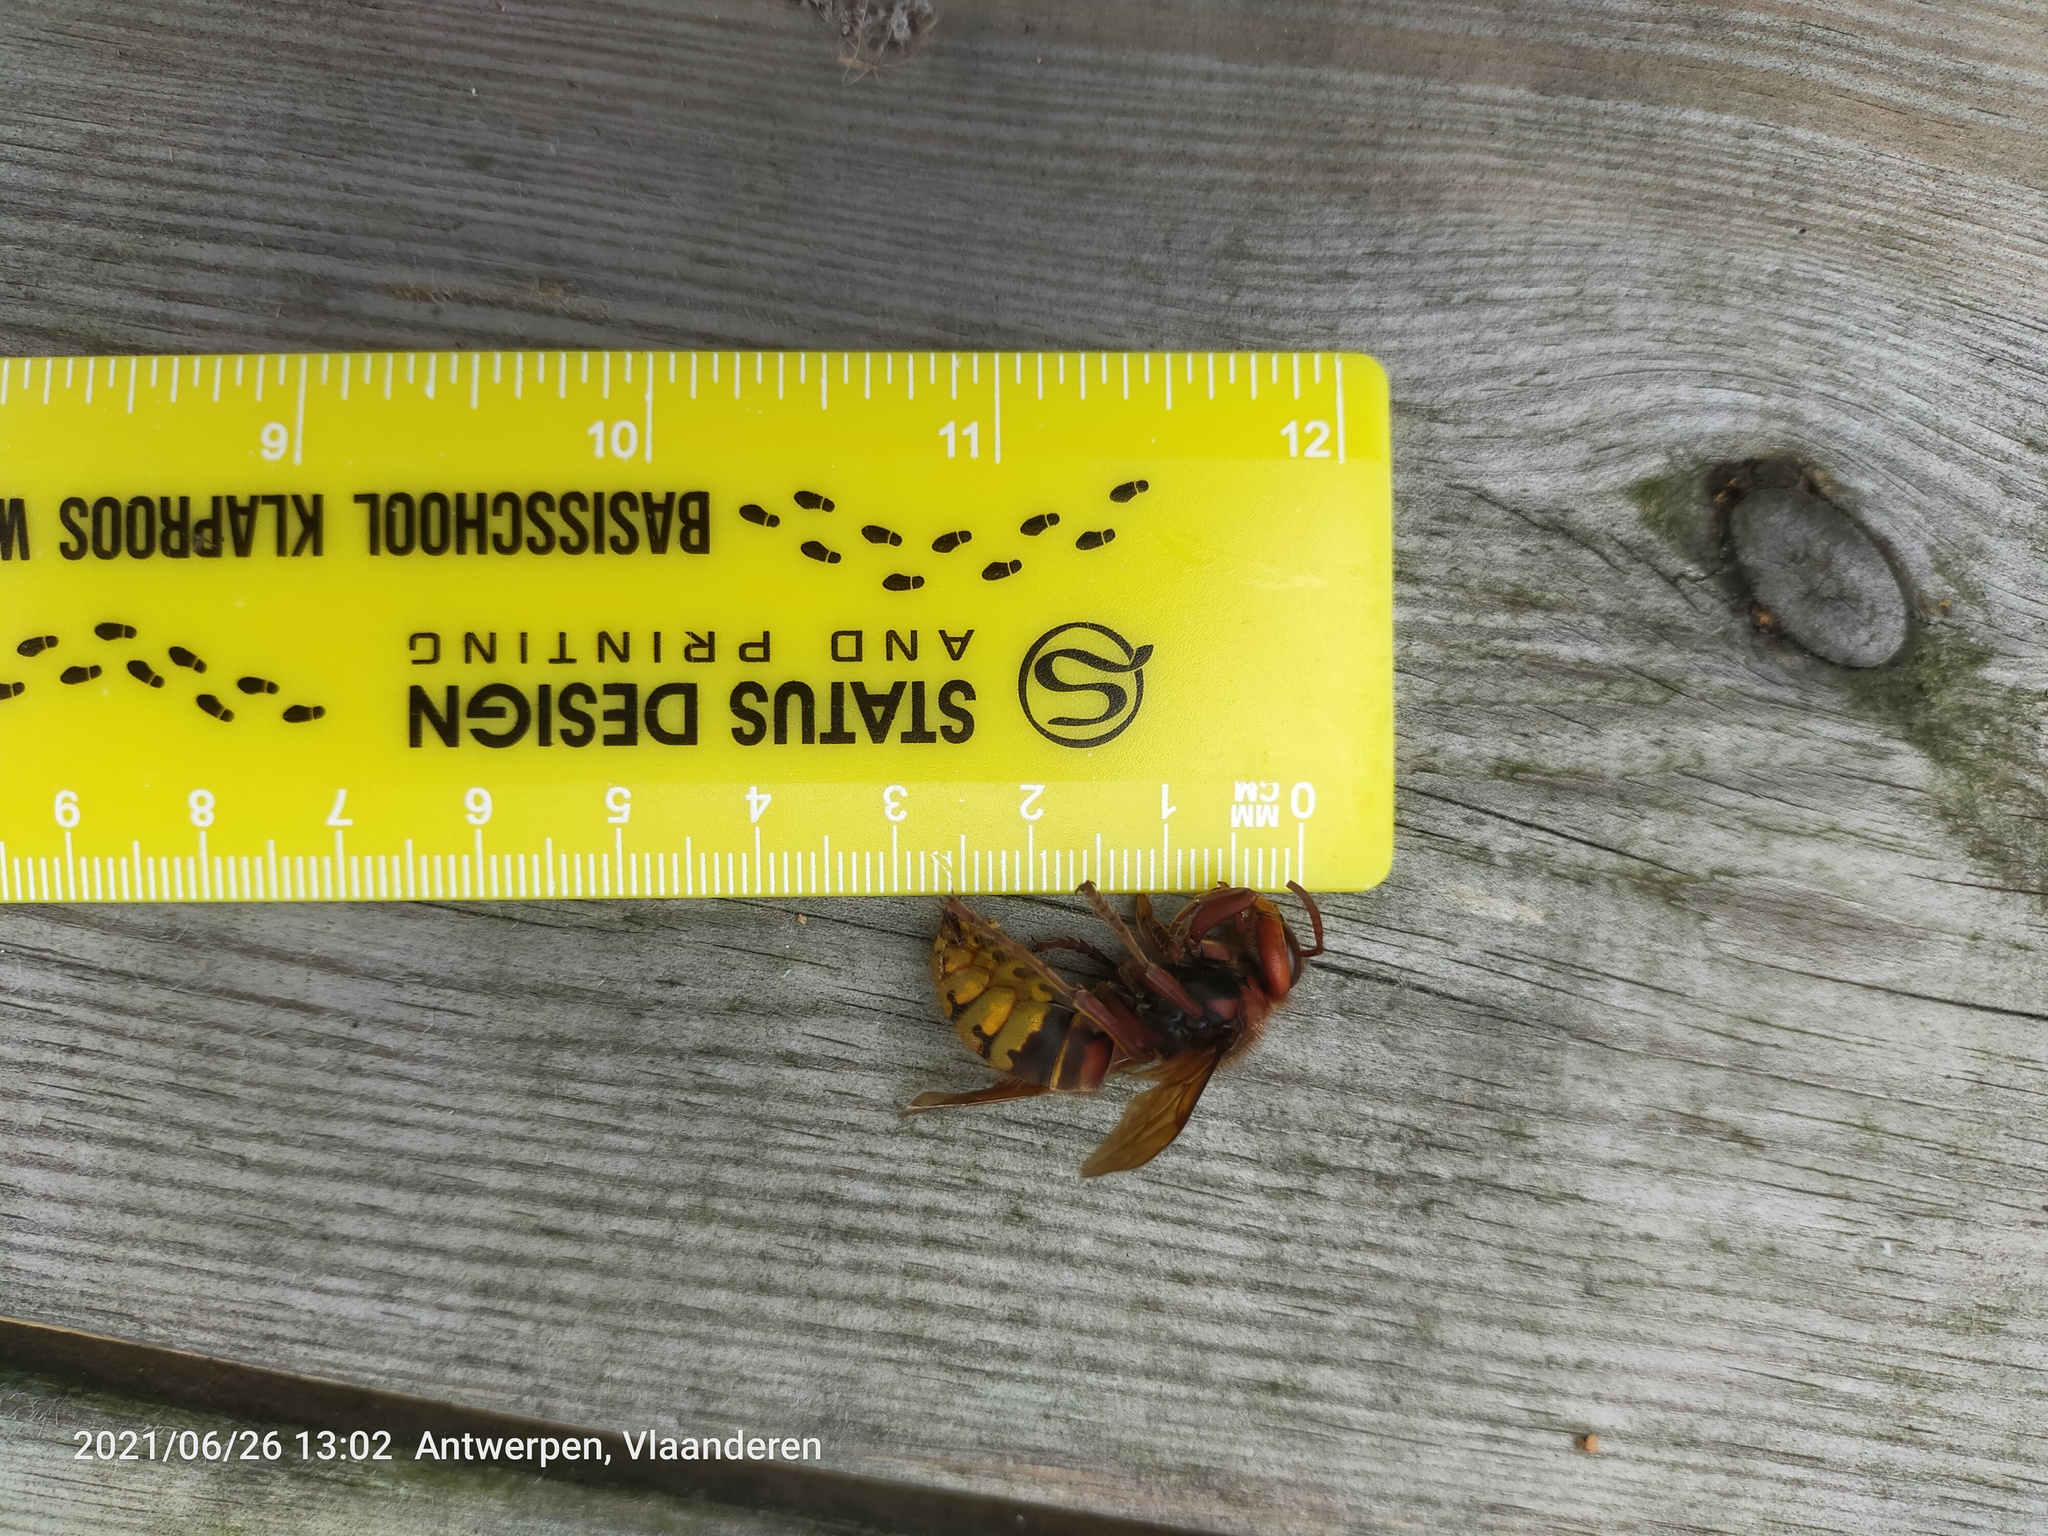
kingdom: Animalia
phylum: Arthropoda
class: Insecta
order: Hymenoptera
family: Vespidae
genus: Vespa
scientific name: Vespa crabro
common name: Hornet
